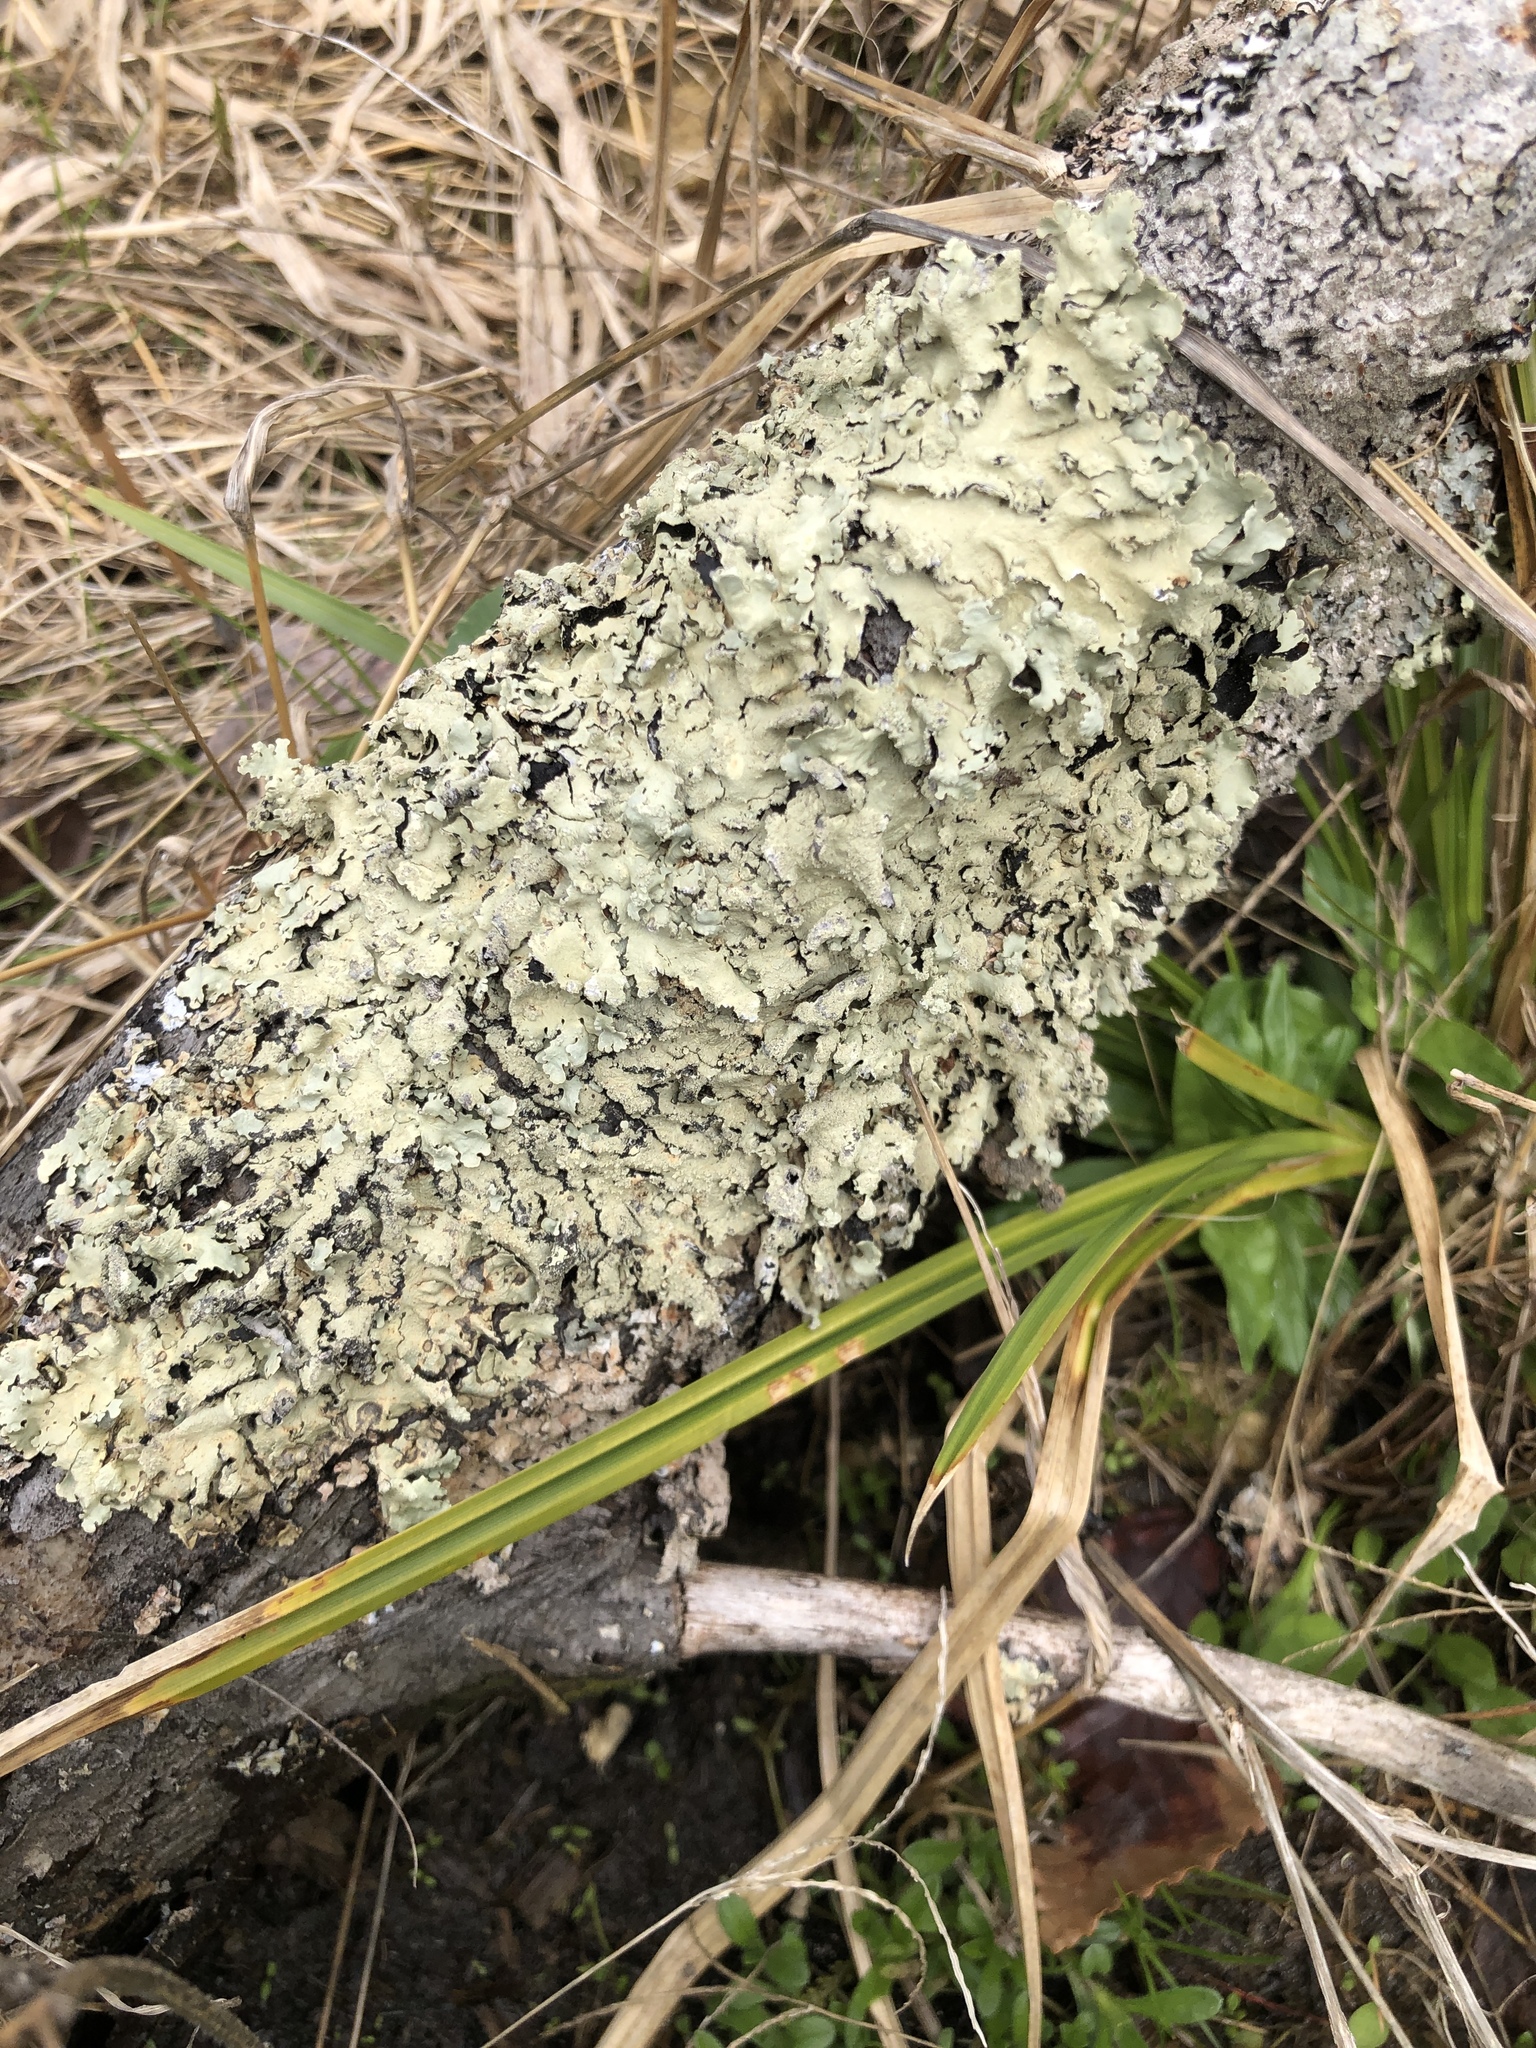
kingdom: Fungi
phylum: Ascomycota
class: Lecanoromycetes
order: Lecanorales
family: Parmeliaceae
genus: Flavoparmelia
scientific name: Flavoparmelia caperata
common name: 40-mile per hour lichen
